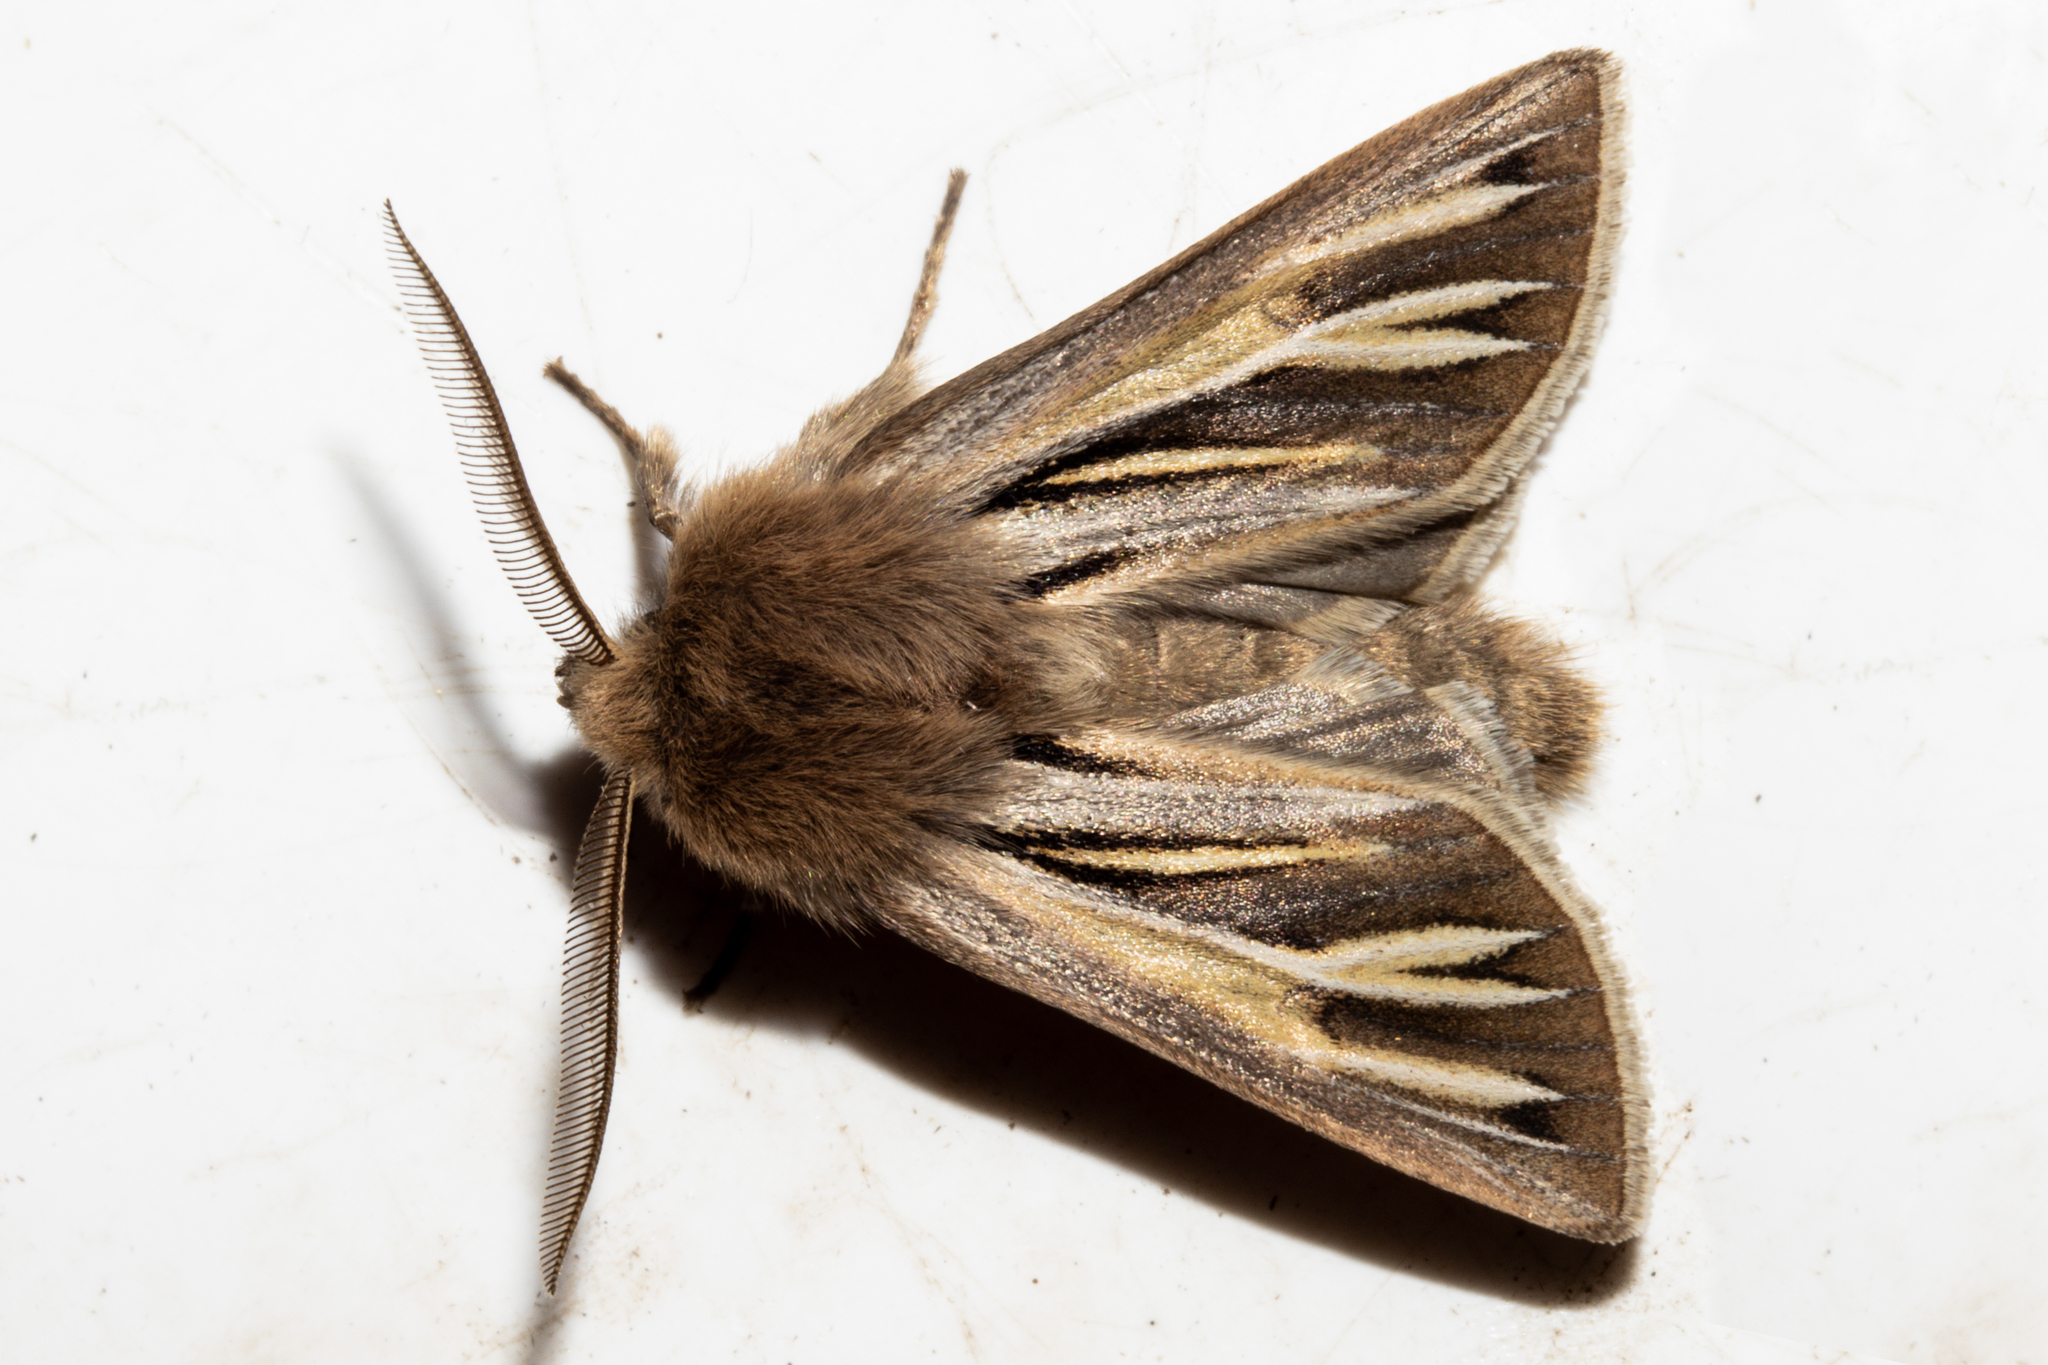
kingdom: Animalia
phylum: Arthropoda
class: Insecta
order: Lepidoptera
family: Noctuidae
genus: Ichneutica
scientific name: Ichneutica caraunias
